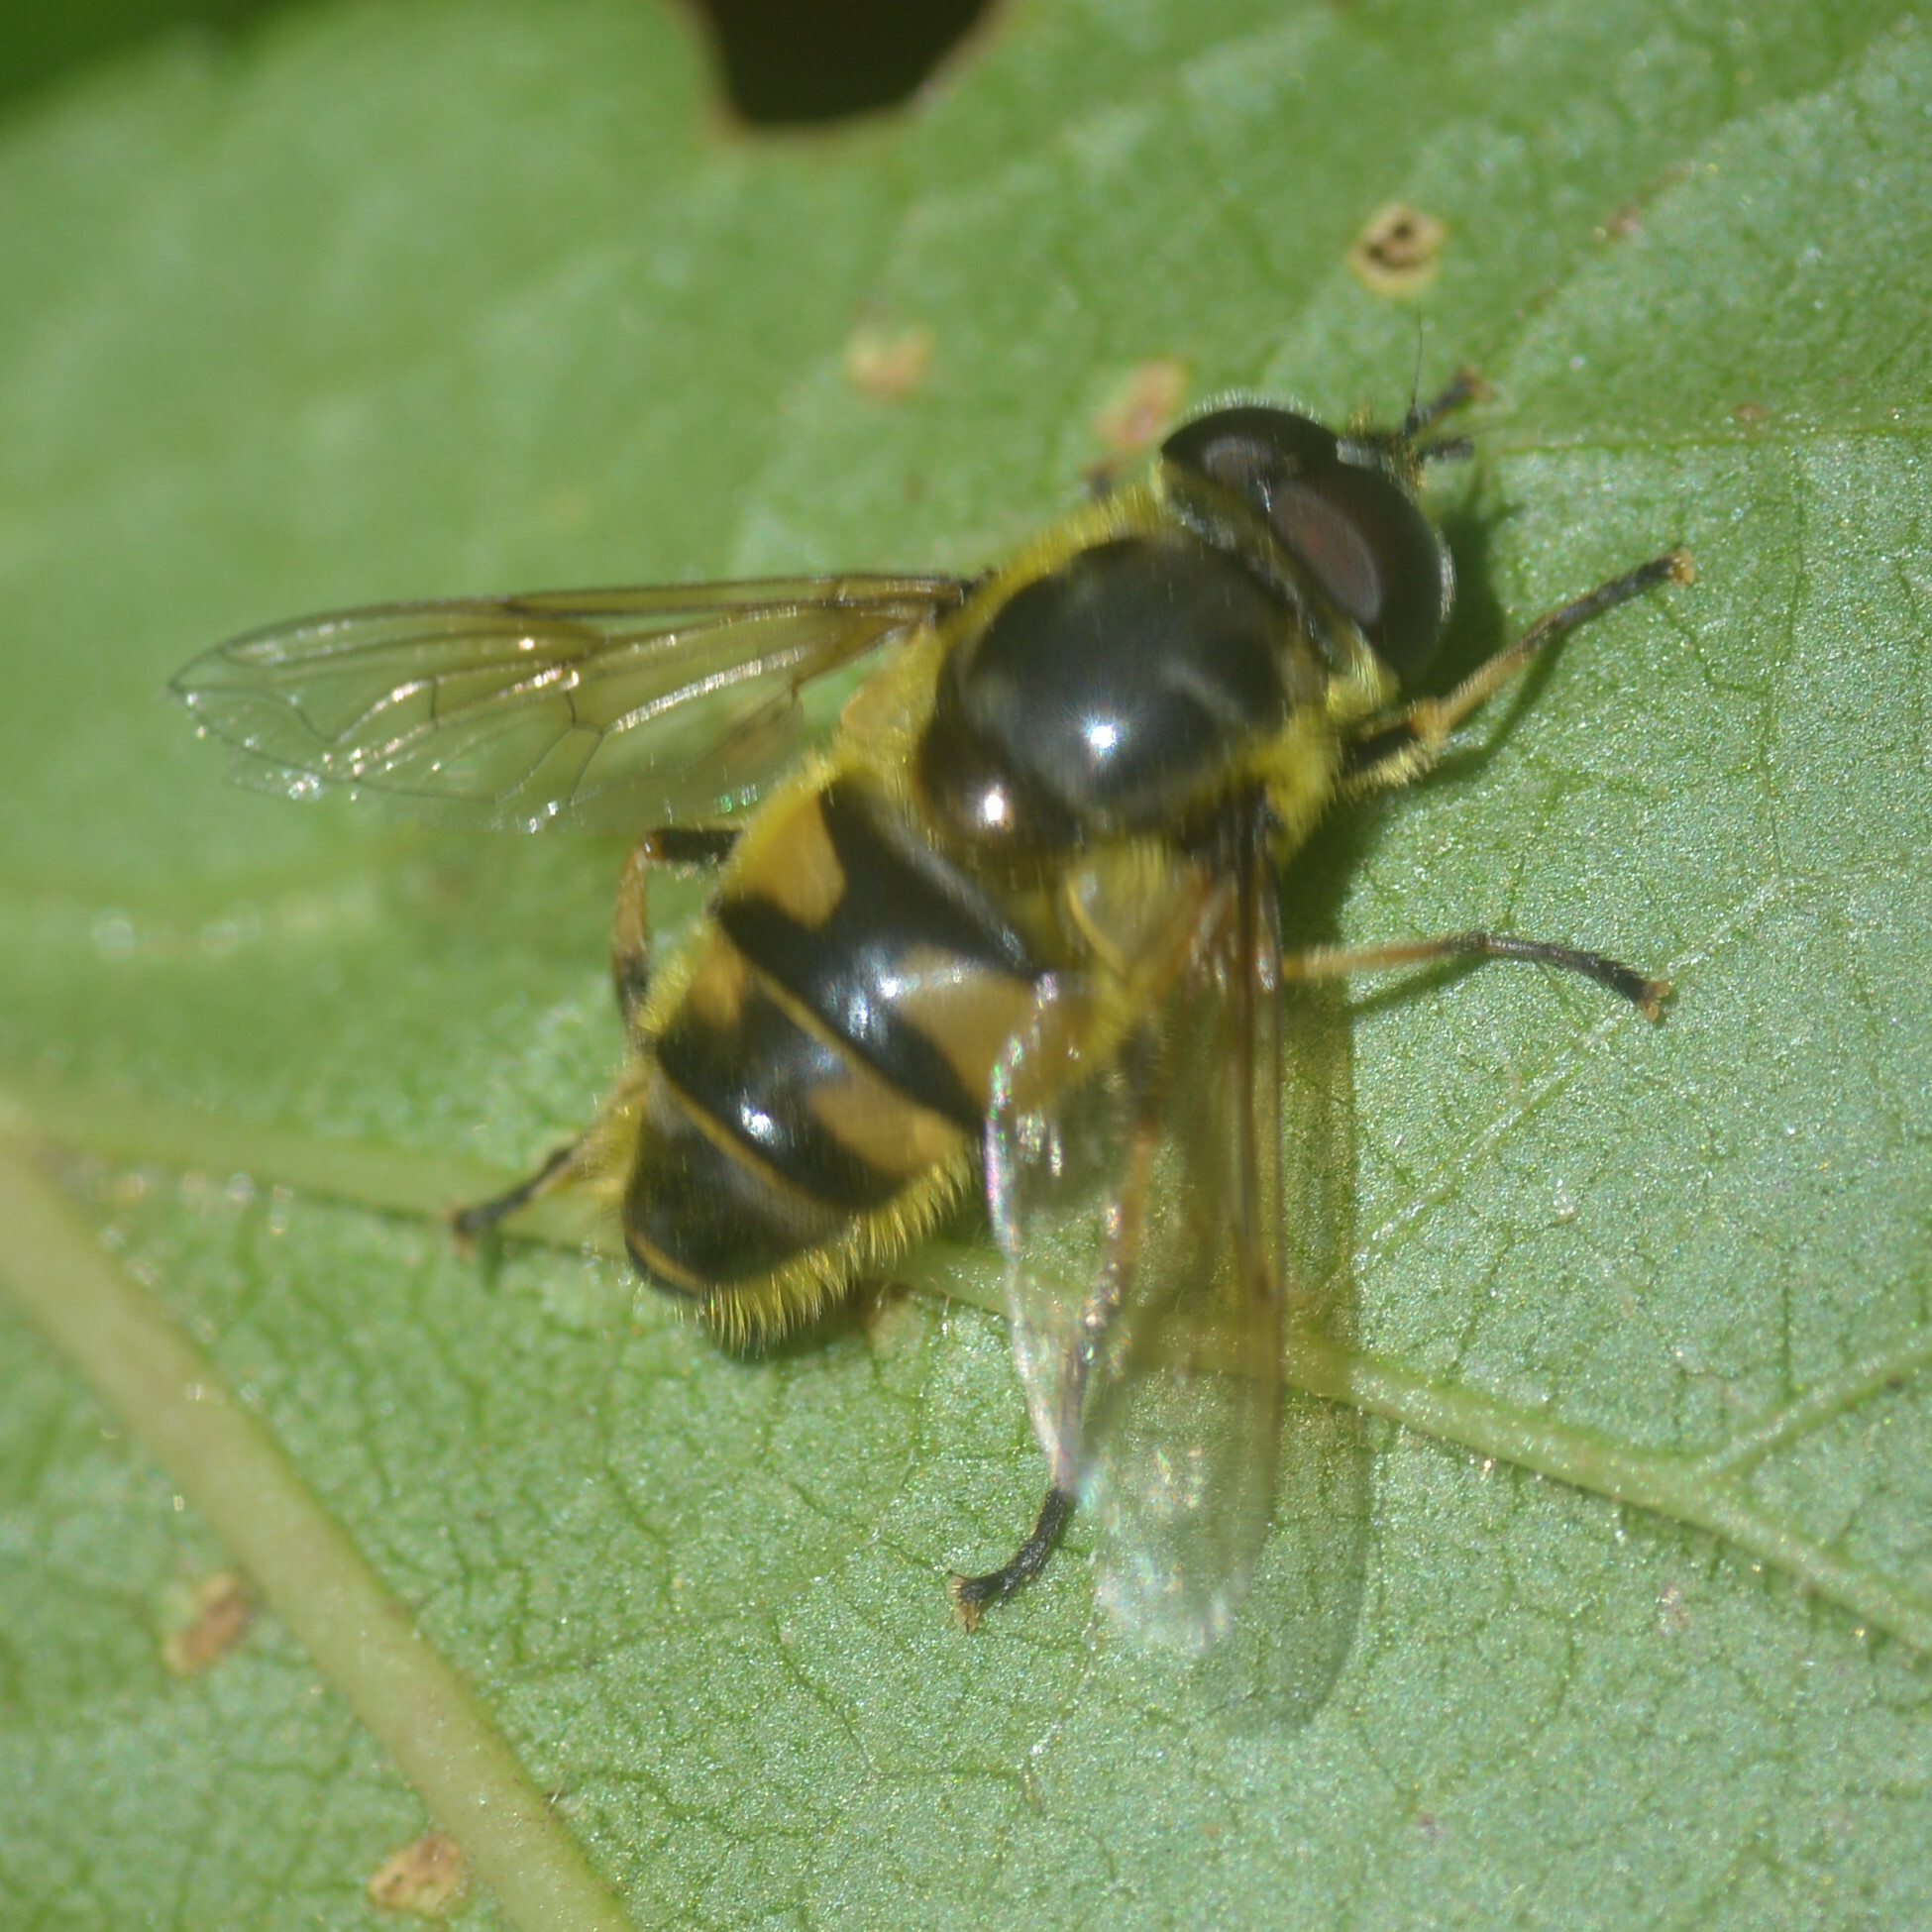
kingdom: Animalia
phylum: Arthropoda
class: Insecta
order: Diptera
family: Syrphidae
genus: Myathropa
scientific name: Myathropa florea
